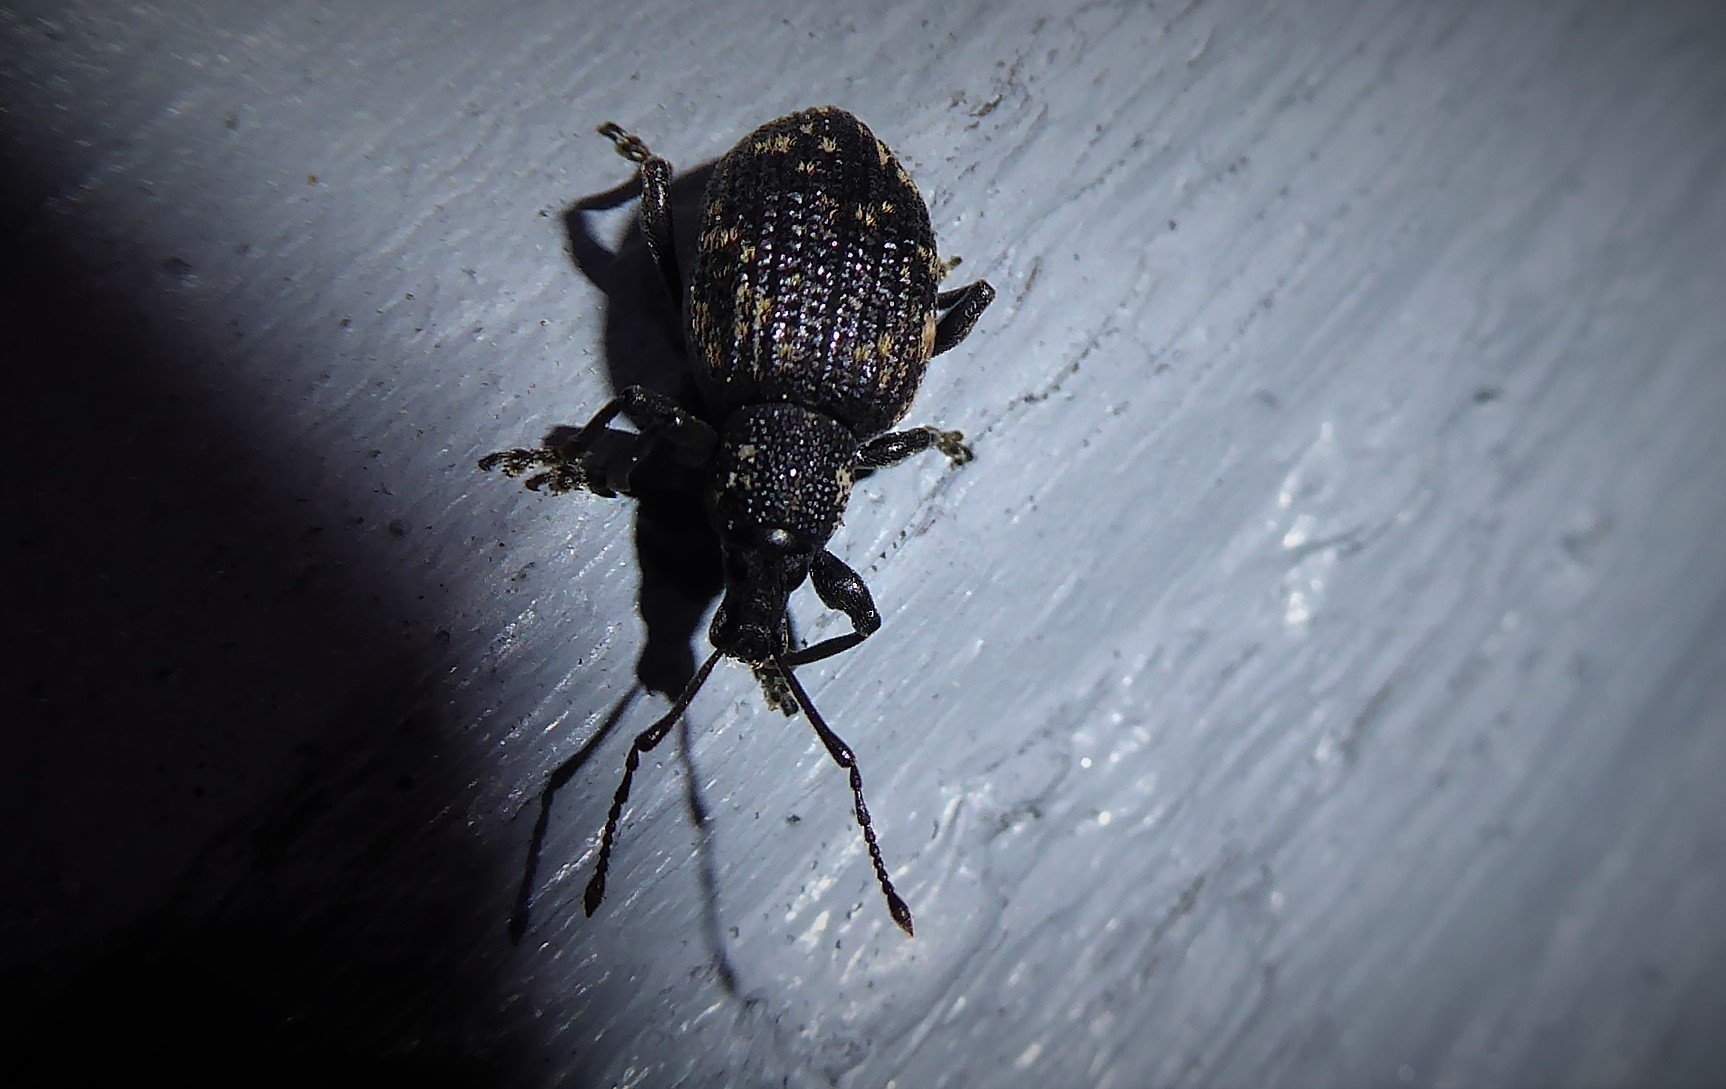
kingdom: Animalia
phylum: Arthropoda
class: Insecta
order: Coleoptera
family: Curculionidae
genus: Otiorhynchus
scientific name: Otiorhynchus sulcatus
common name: Black vine weevil
